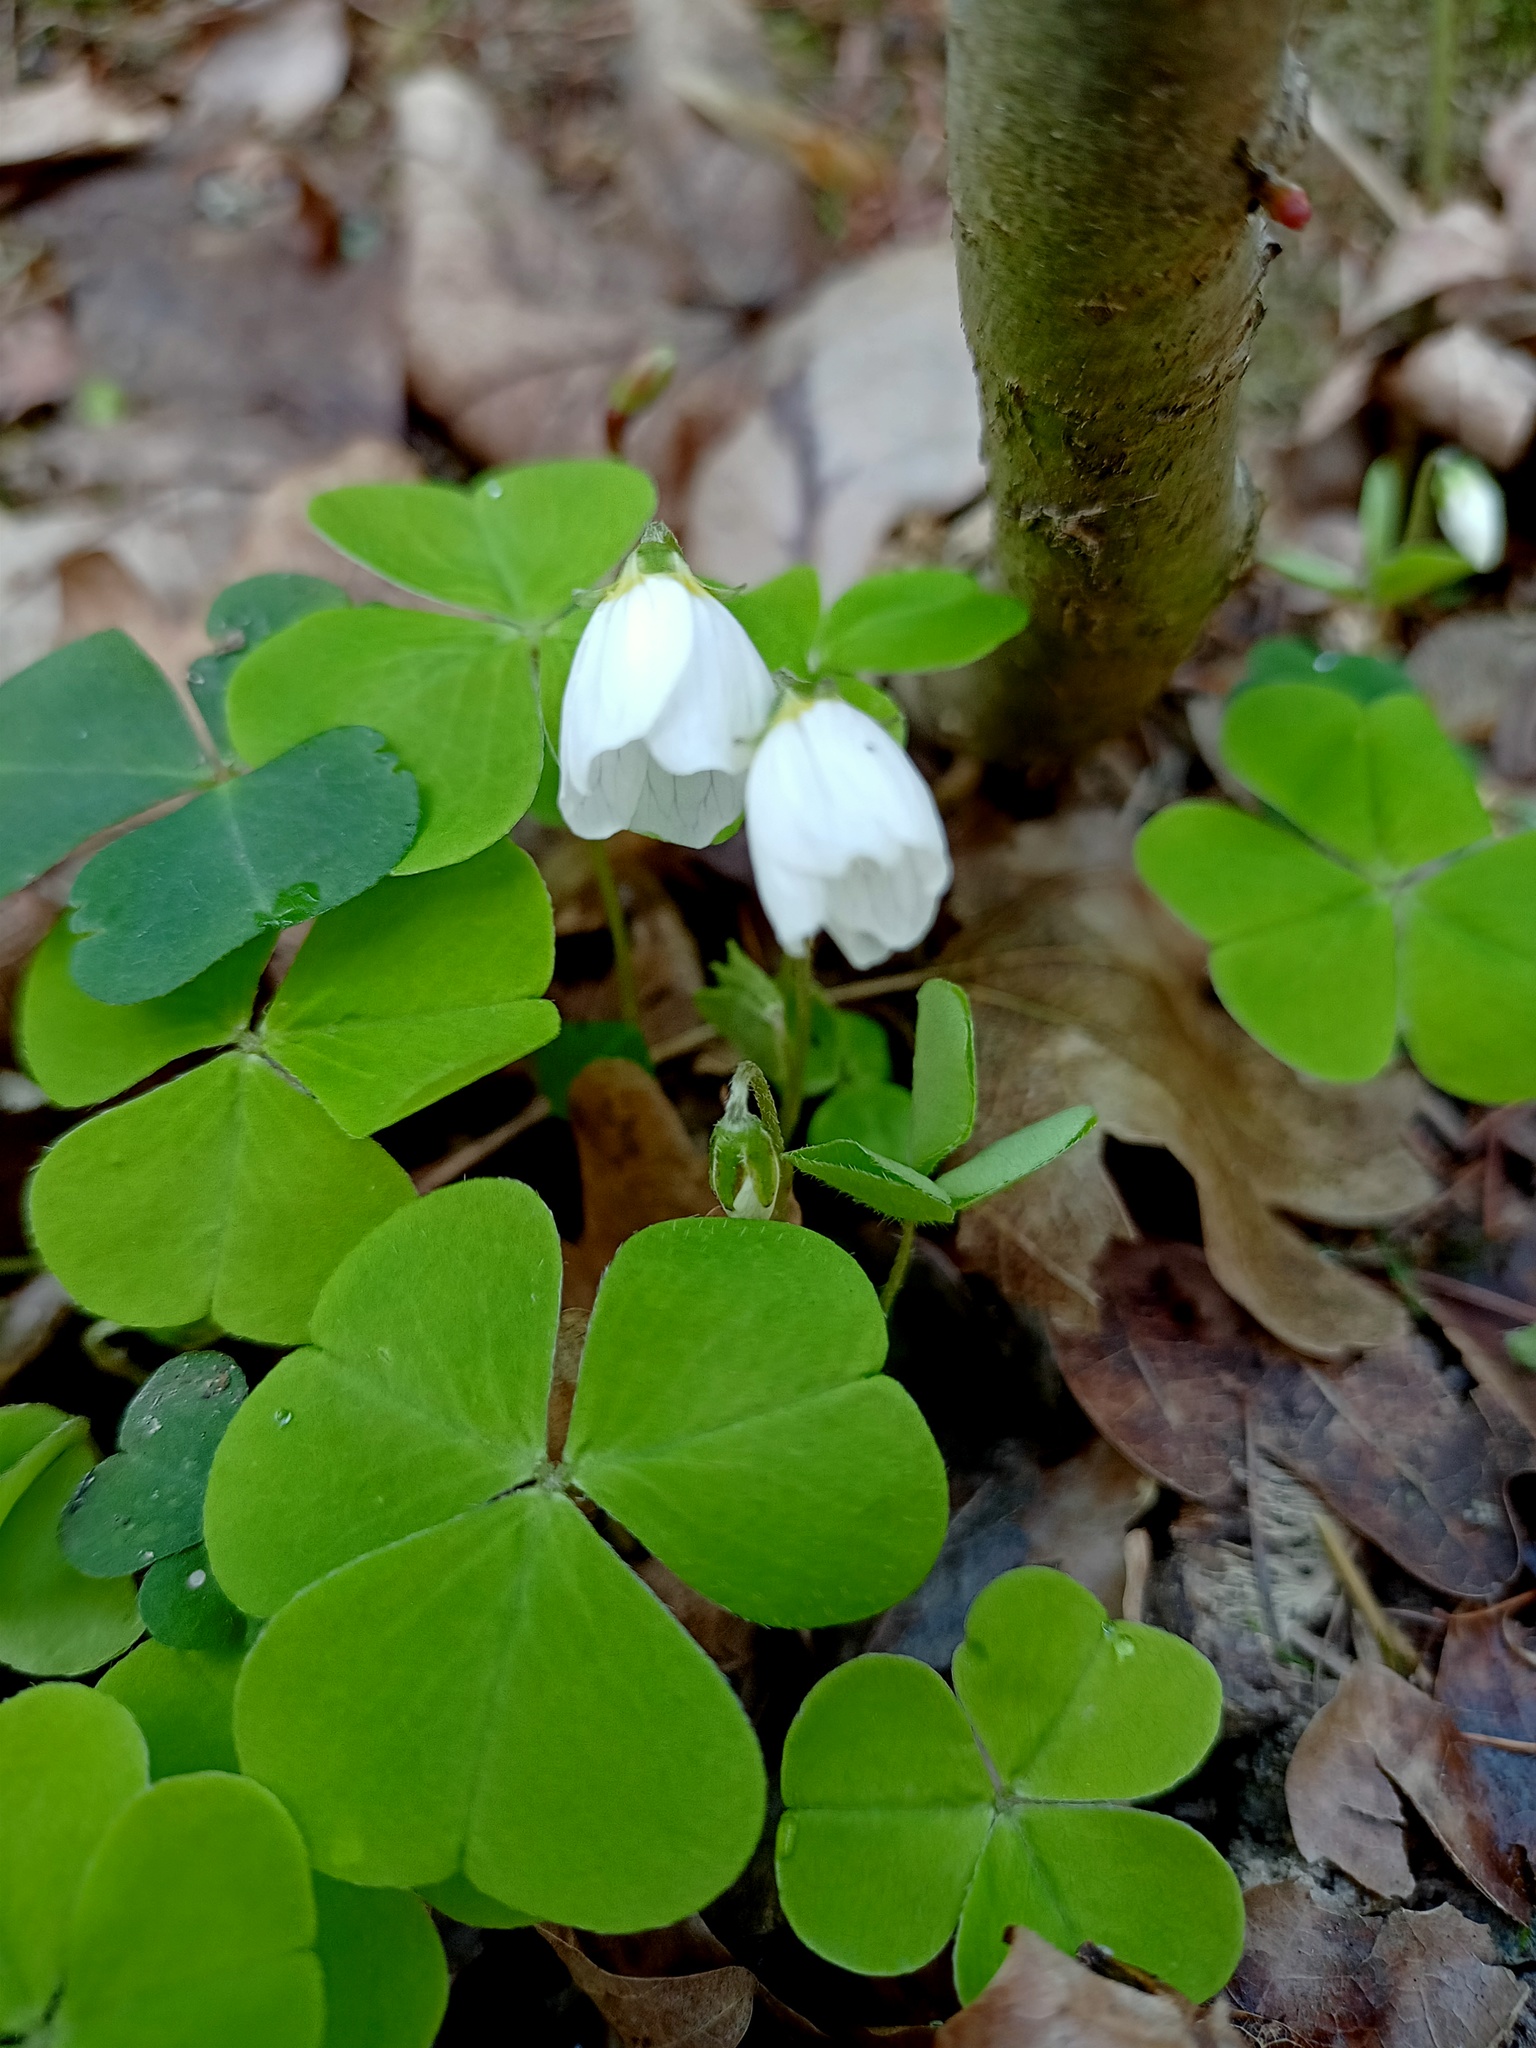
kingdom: Plantae
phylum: Tracheophyta
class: Magnoliopsida
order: Oxalidales
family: Oxalidaceae
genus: Oxalis
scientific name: Oxalis acetosella
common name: Wood-sorrel
